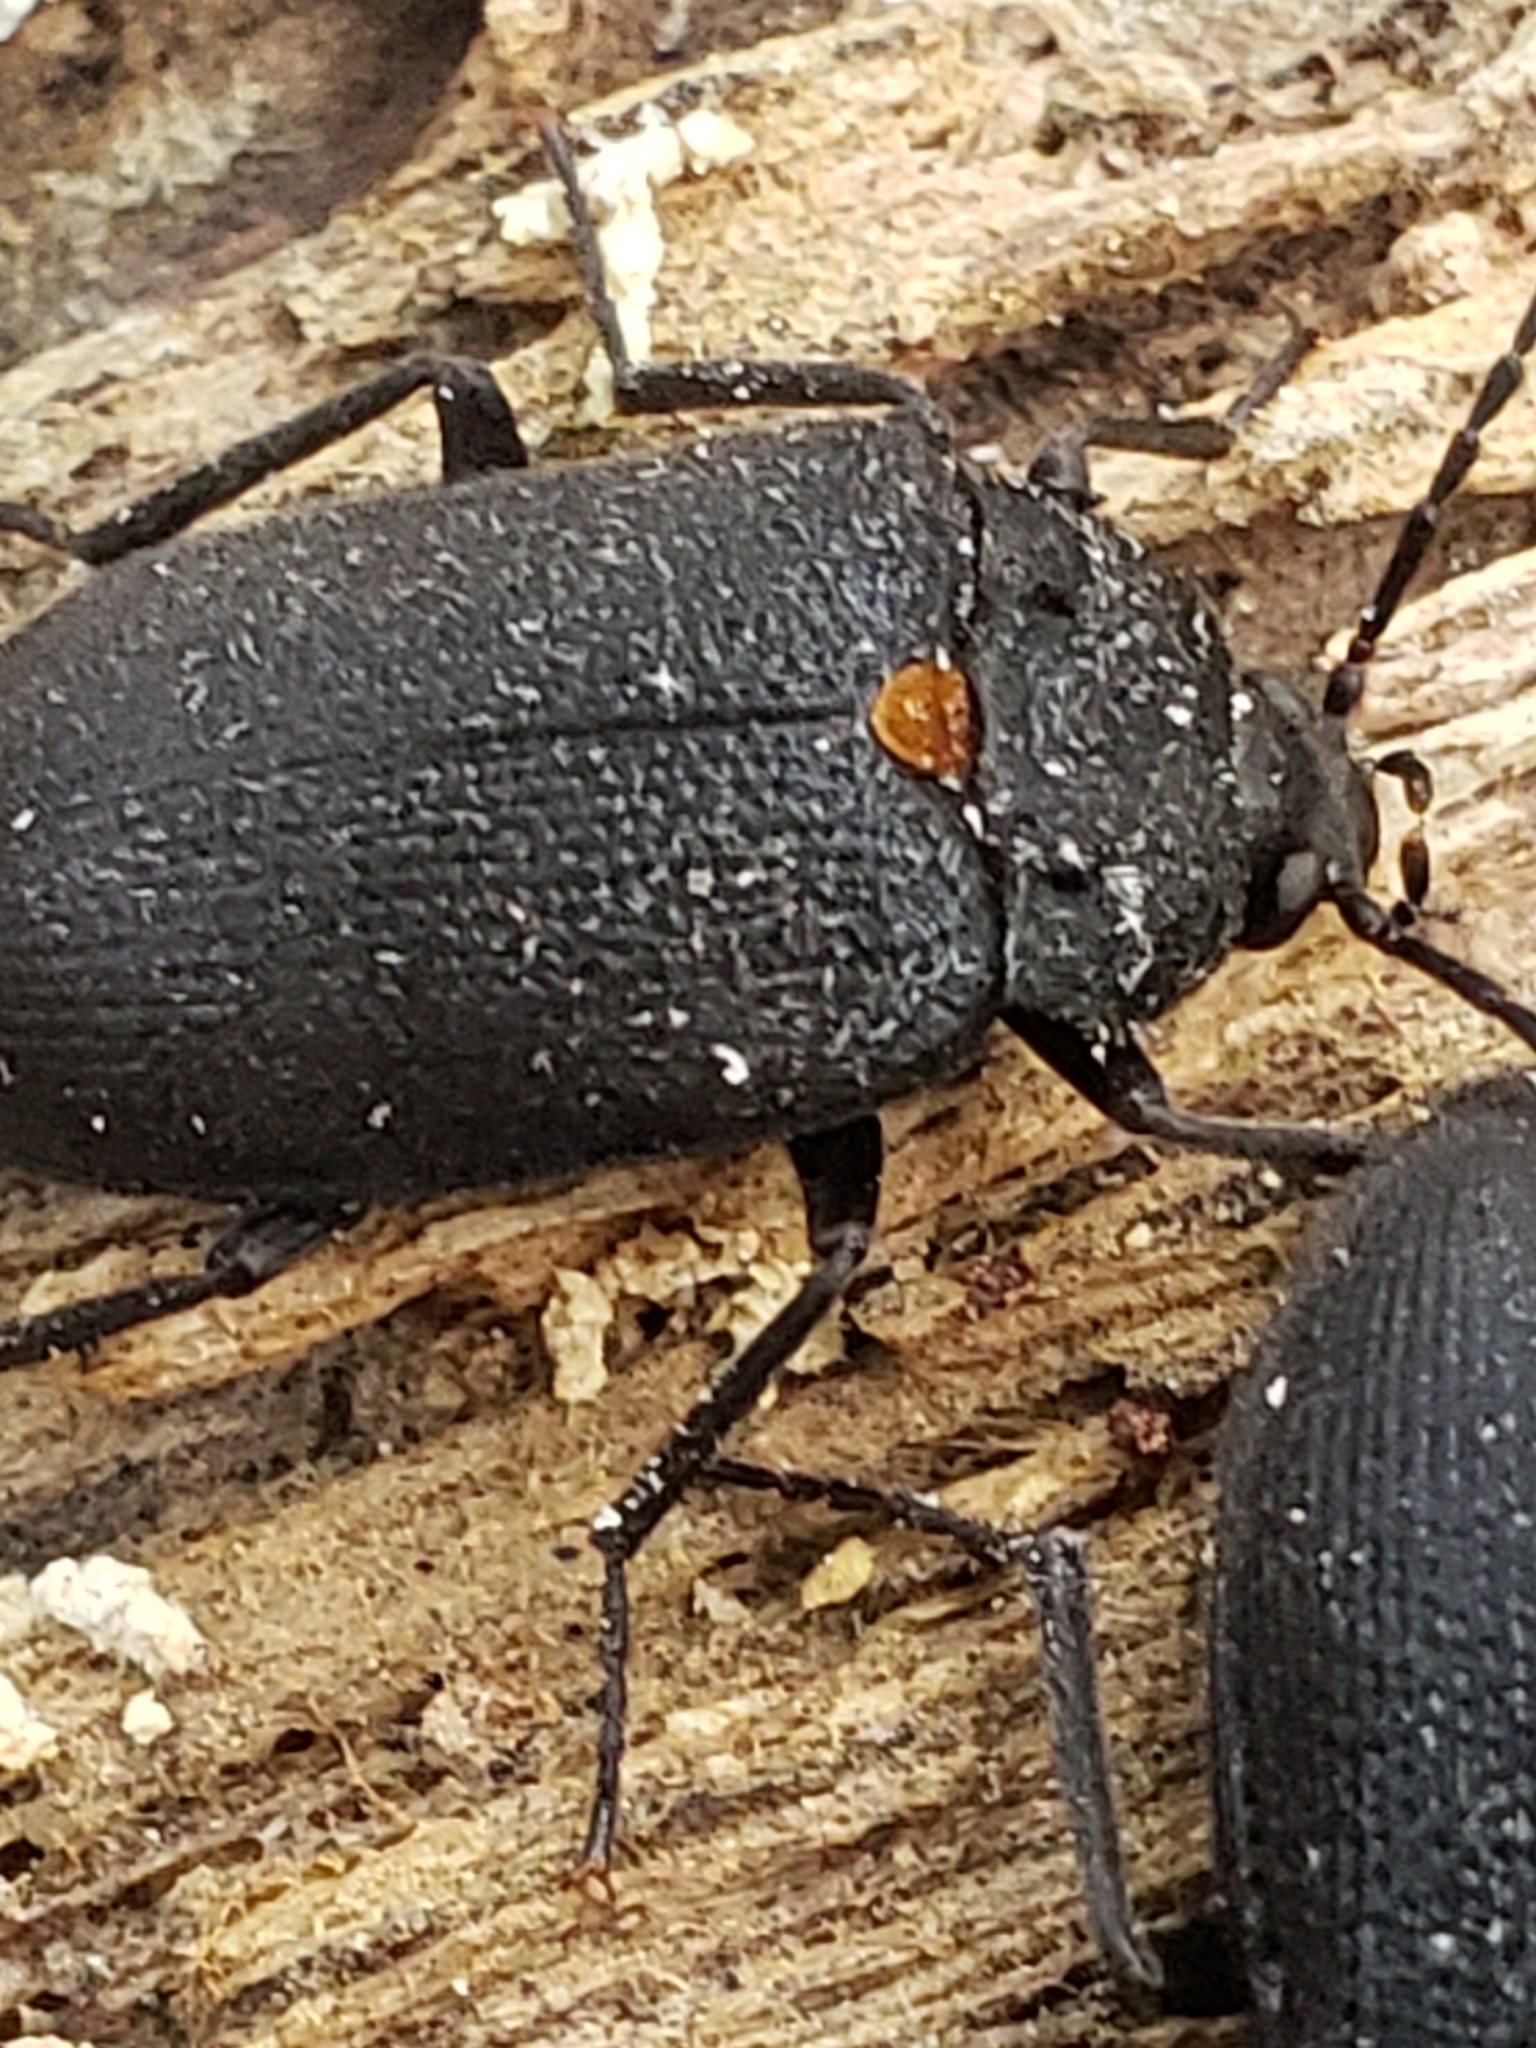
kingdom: Animalia
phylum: Arthropoda
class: Insecta
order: Coleoptera
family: Tetratomidae
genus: Penthe
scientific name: Penthe obliquata
